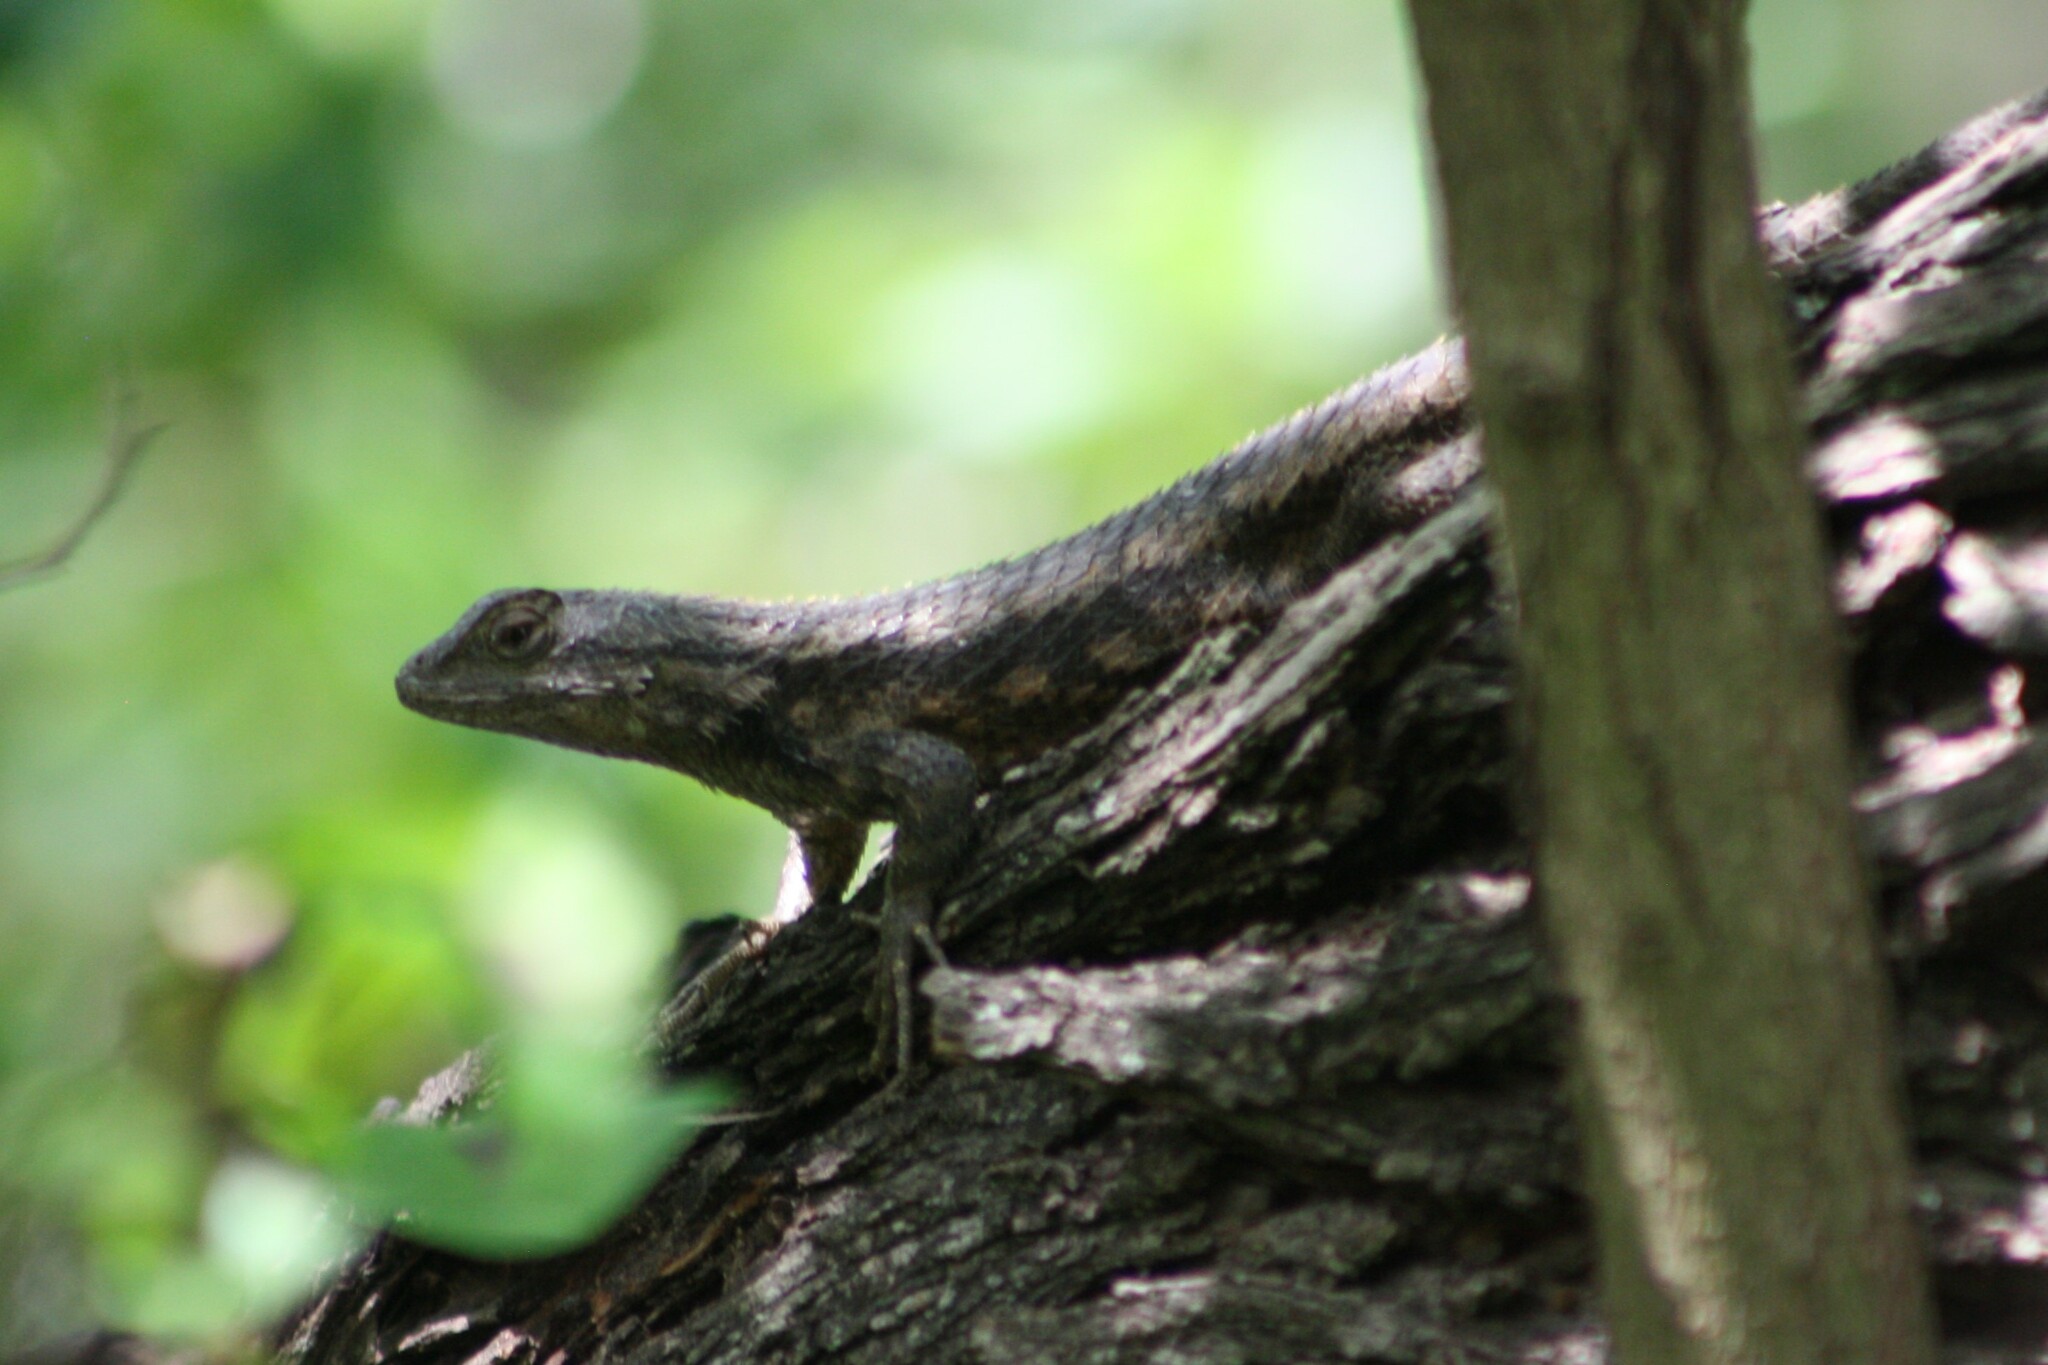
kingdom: Animalia
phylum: Chordata
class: Squamata
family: Phrynosomatidae
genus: Sceloporus
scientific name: Sceloporus olivaceus
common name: Texas spiny lizard
